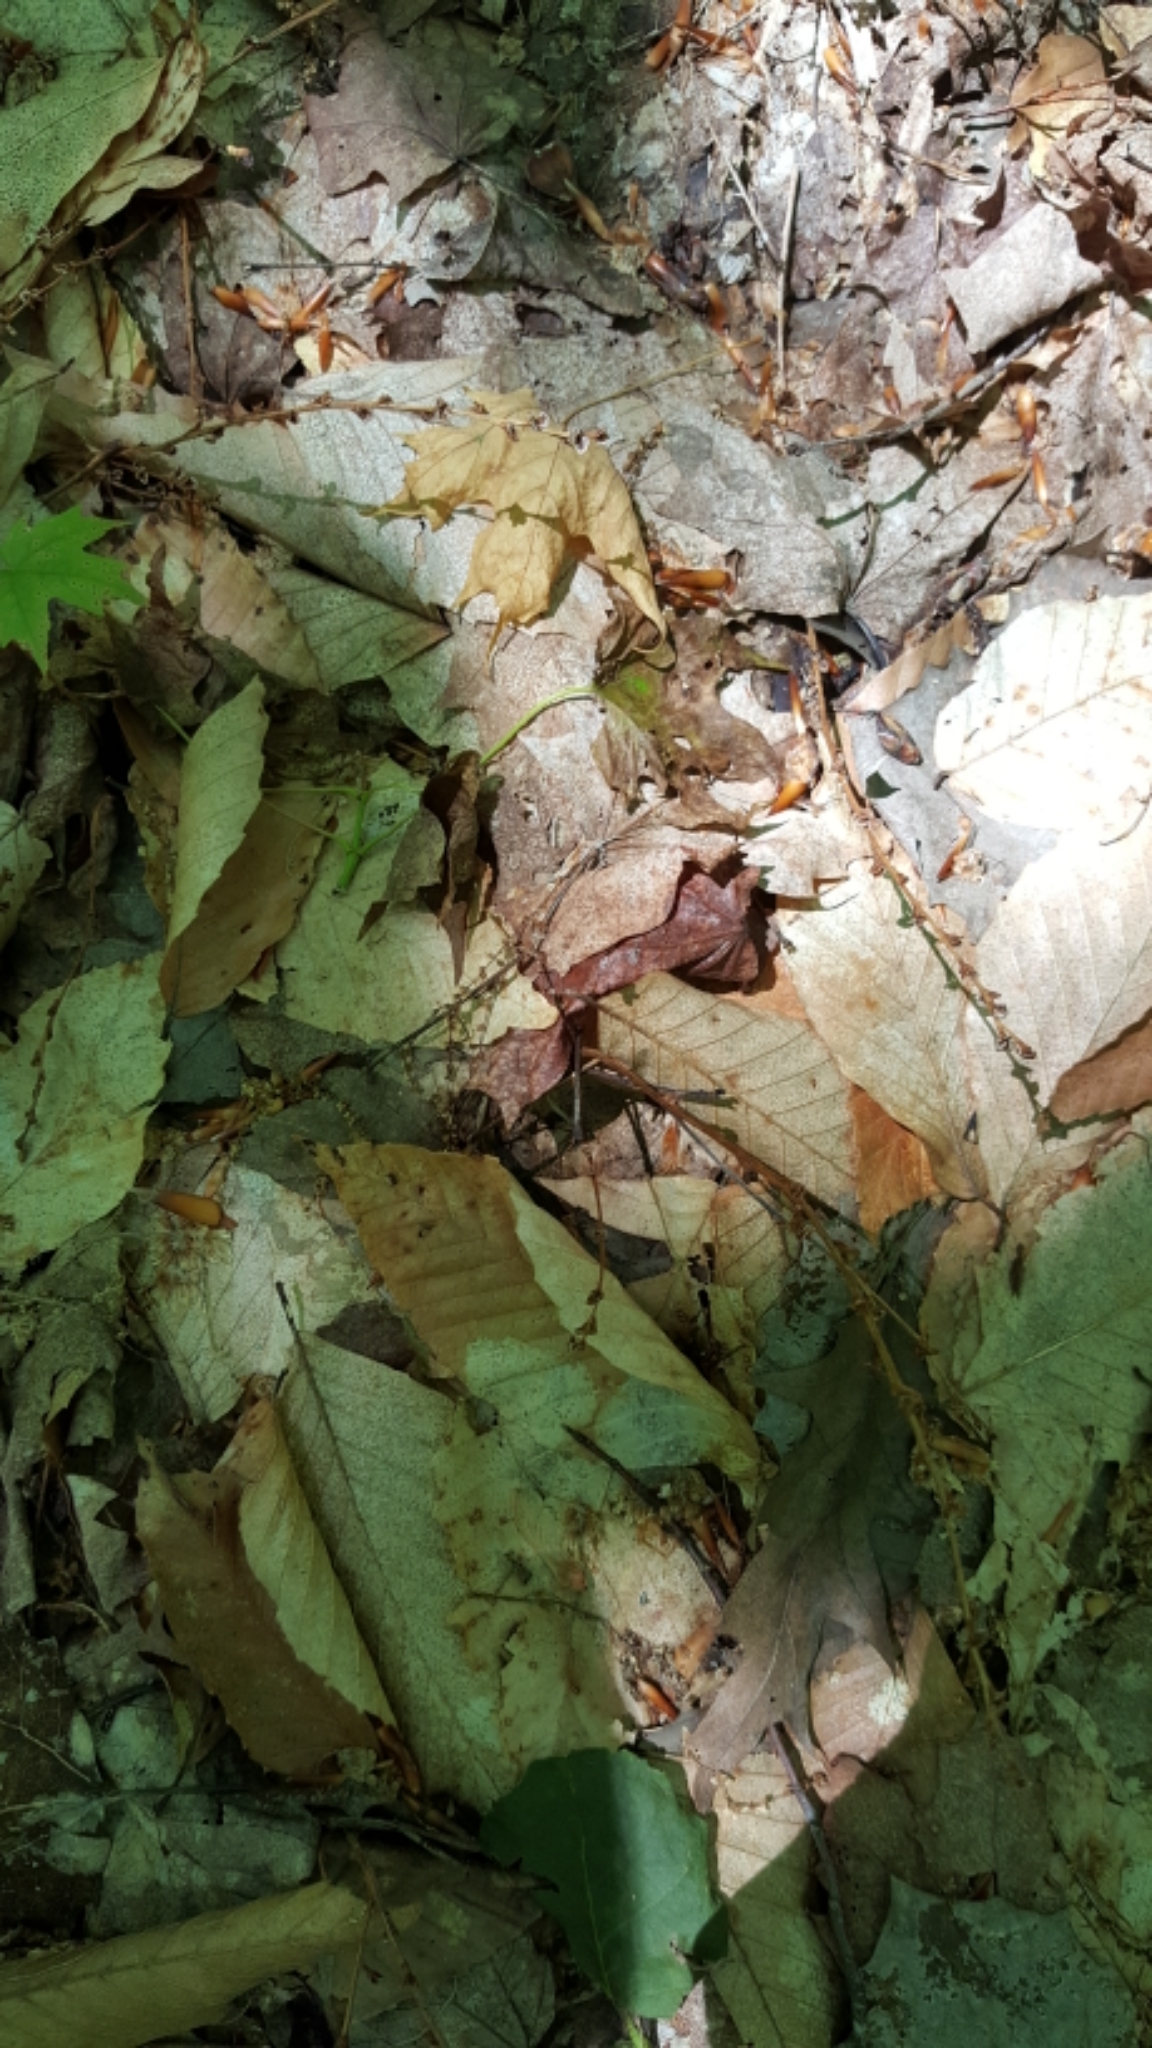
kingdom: Plantae
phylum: Tracheophyta
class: Magnoliopsida
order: Lamiales
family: Orobanchaceae
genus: Epifagus
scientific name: Epifagus virginiana
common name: Beechdrops
